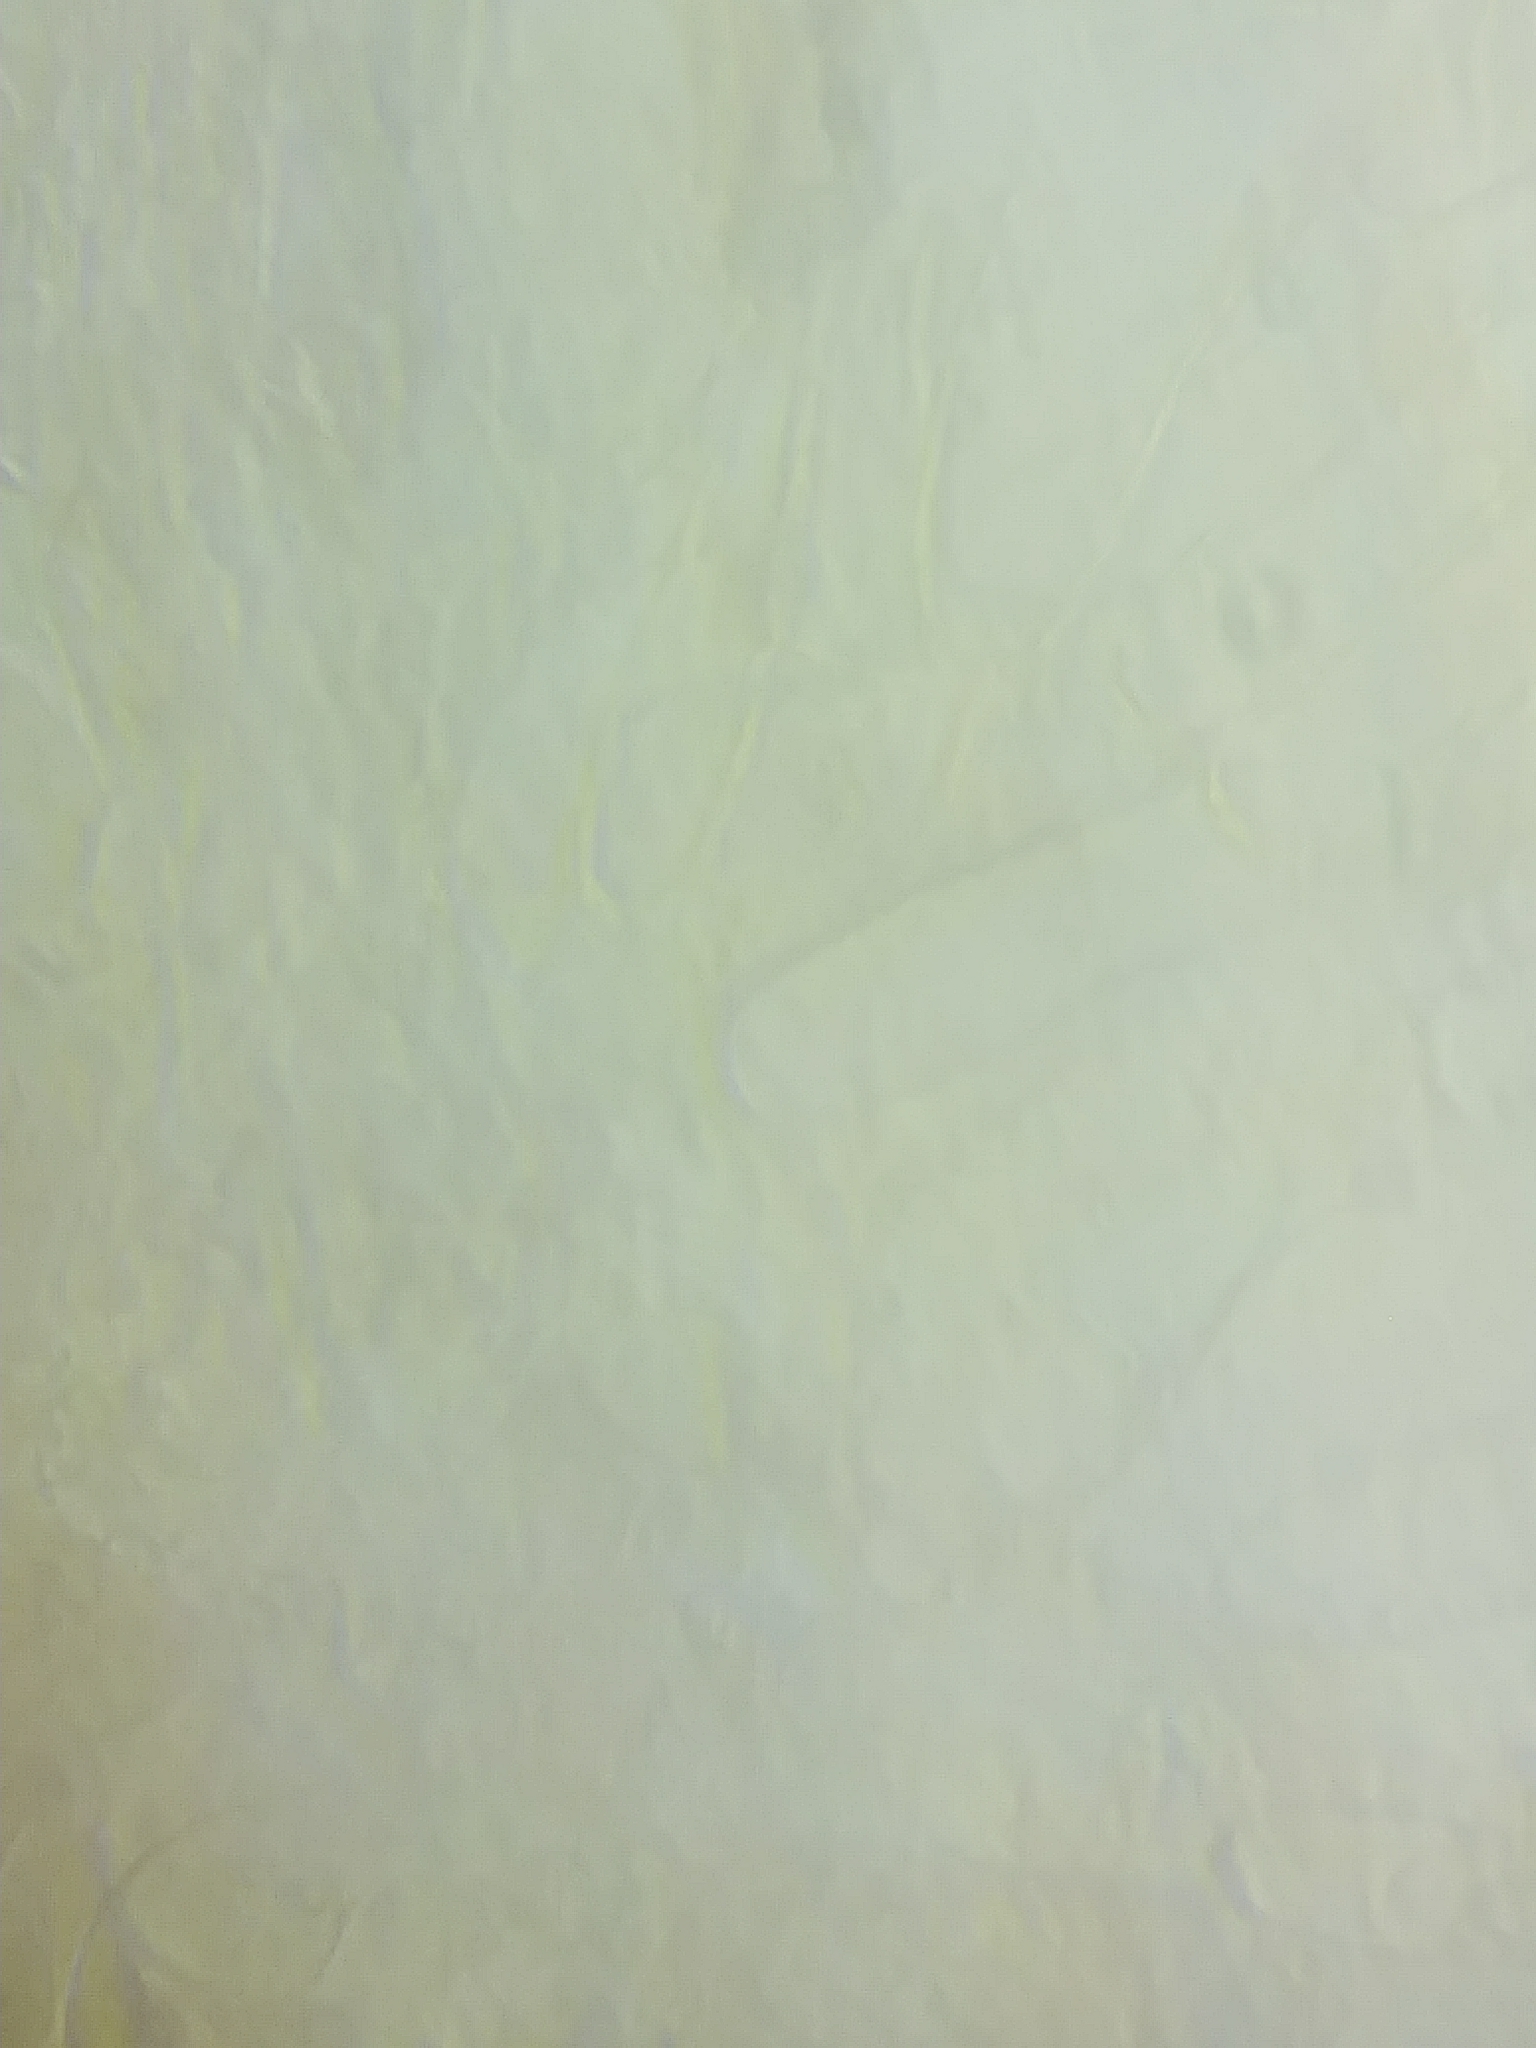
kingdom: Fungi
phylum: Basidiomycota
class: Agaricomycetes
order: Agaricales
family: Entolomataceae
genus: Entoloma
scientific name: Entoloma formosum
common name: Pretty pinkgill
